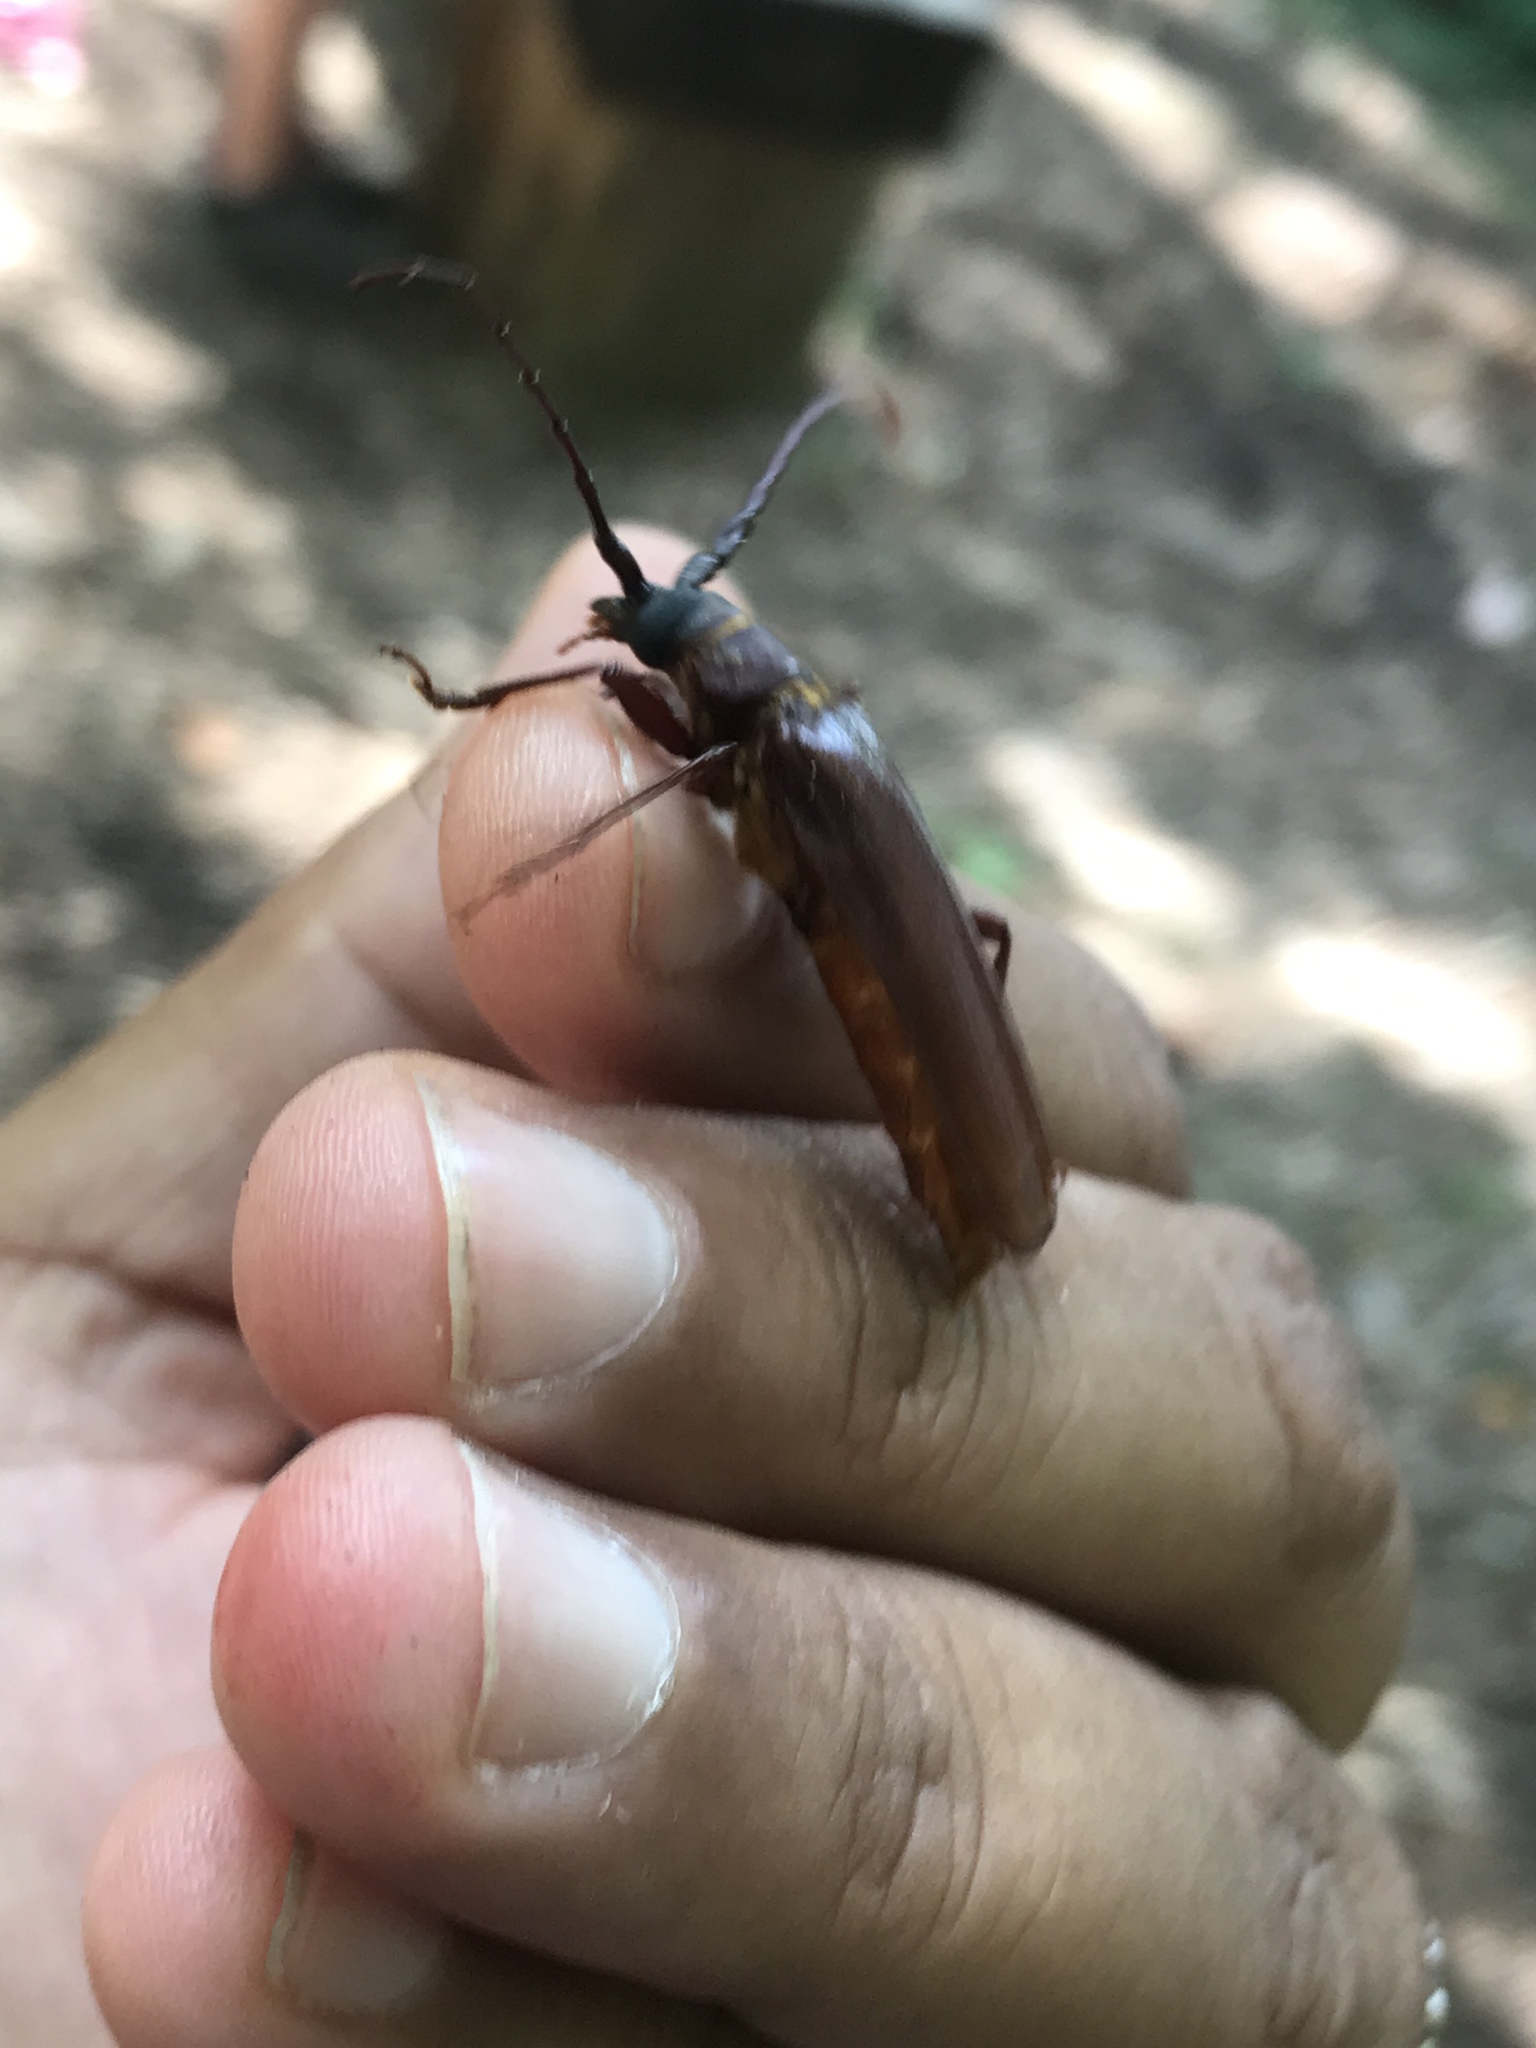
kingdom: Animalia
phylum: Arthropoda
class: Insecta
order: Coleoptera
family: Cerambycidae
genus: Orthosoma
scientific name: Orthosoma brunneum
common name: Brown prionid beetle
